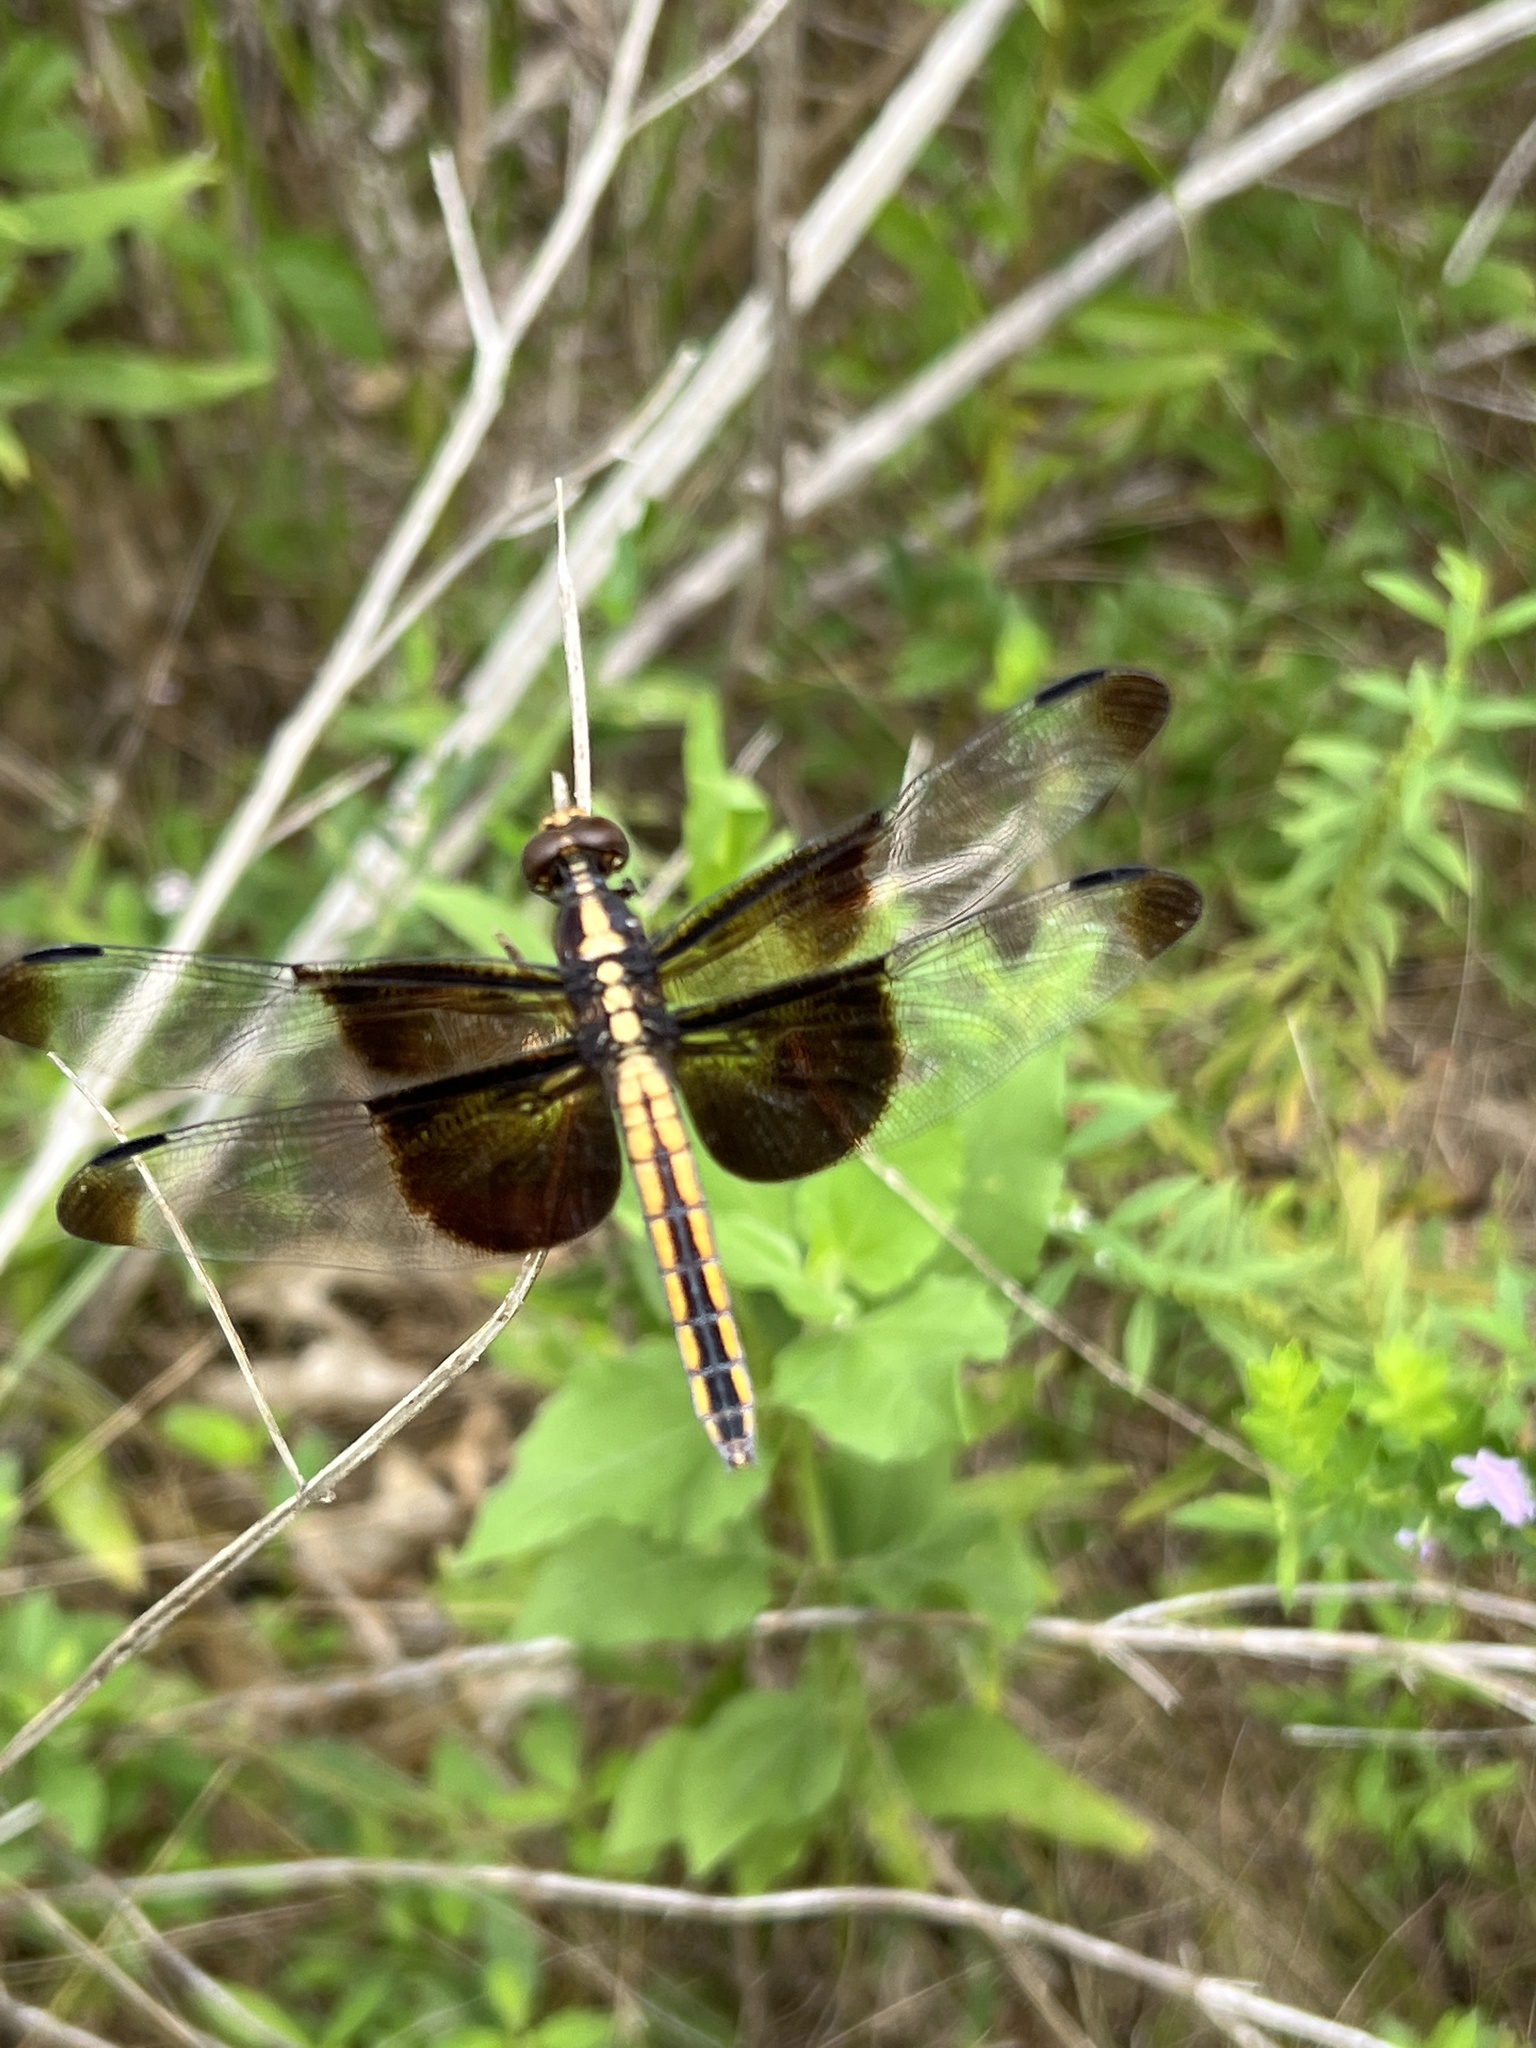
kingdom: Animalia
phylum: Arthropoda
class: Insecta
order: Odonata
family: Libellulidae
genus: Libellula
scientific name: Libellula luctuosa
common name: Widow skimmer
